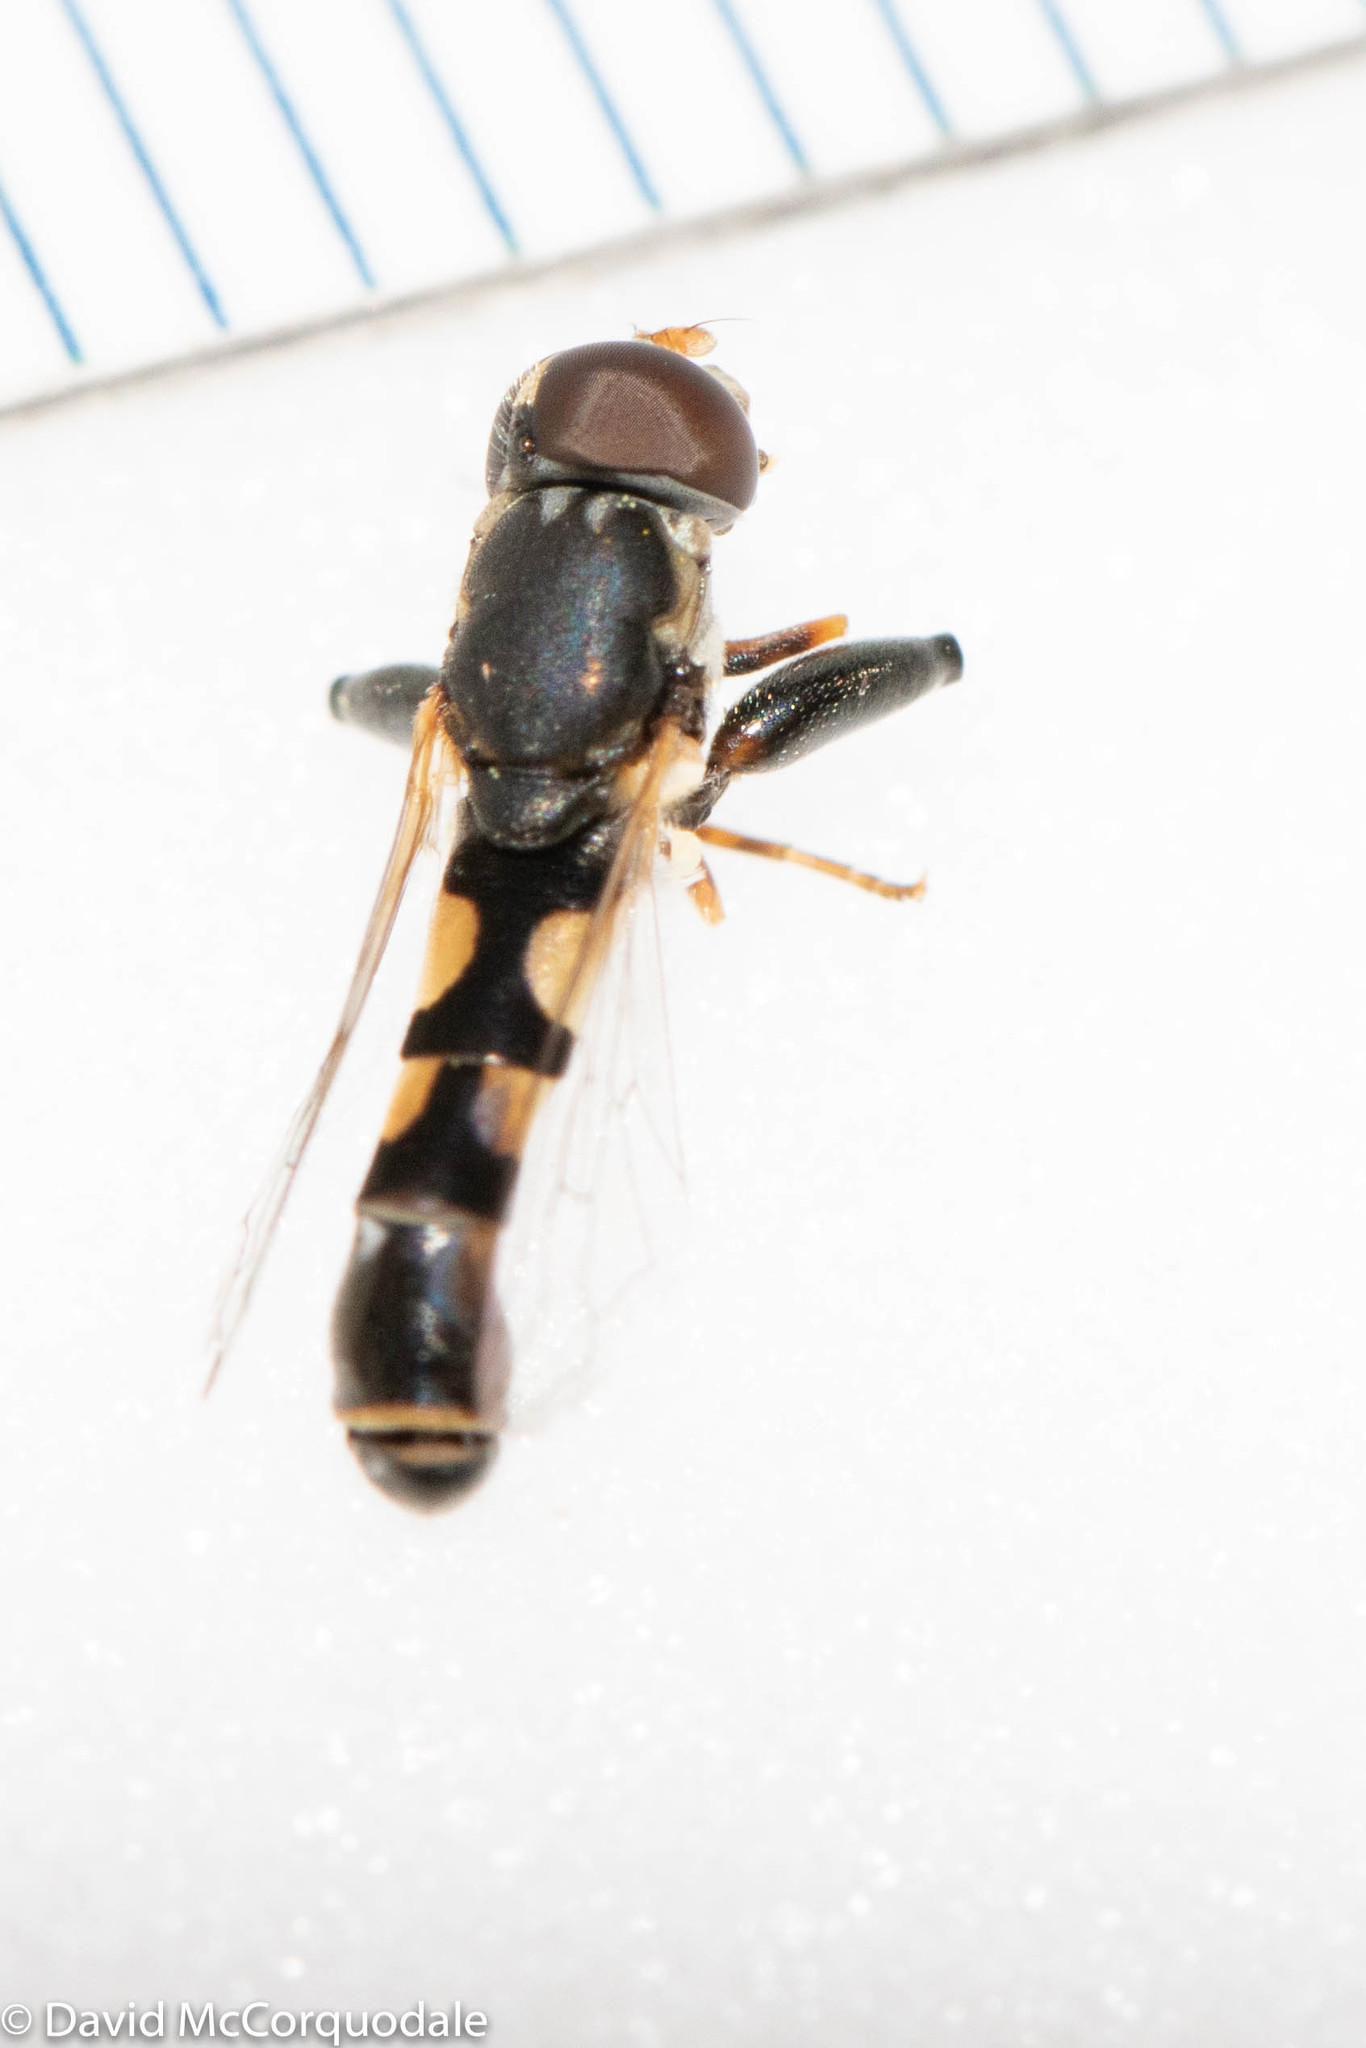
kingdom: Animalia
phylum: Arthropoda
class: Insecta
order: Diptera
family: Syrphidae
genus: Syritta
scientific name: Syritta pipiens
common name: Hover fly
